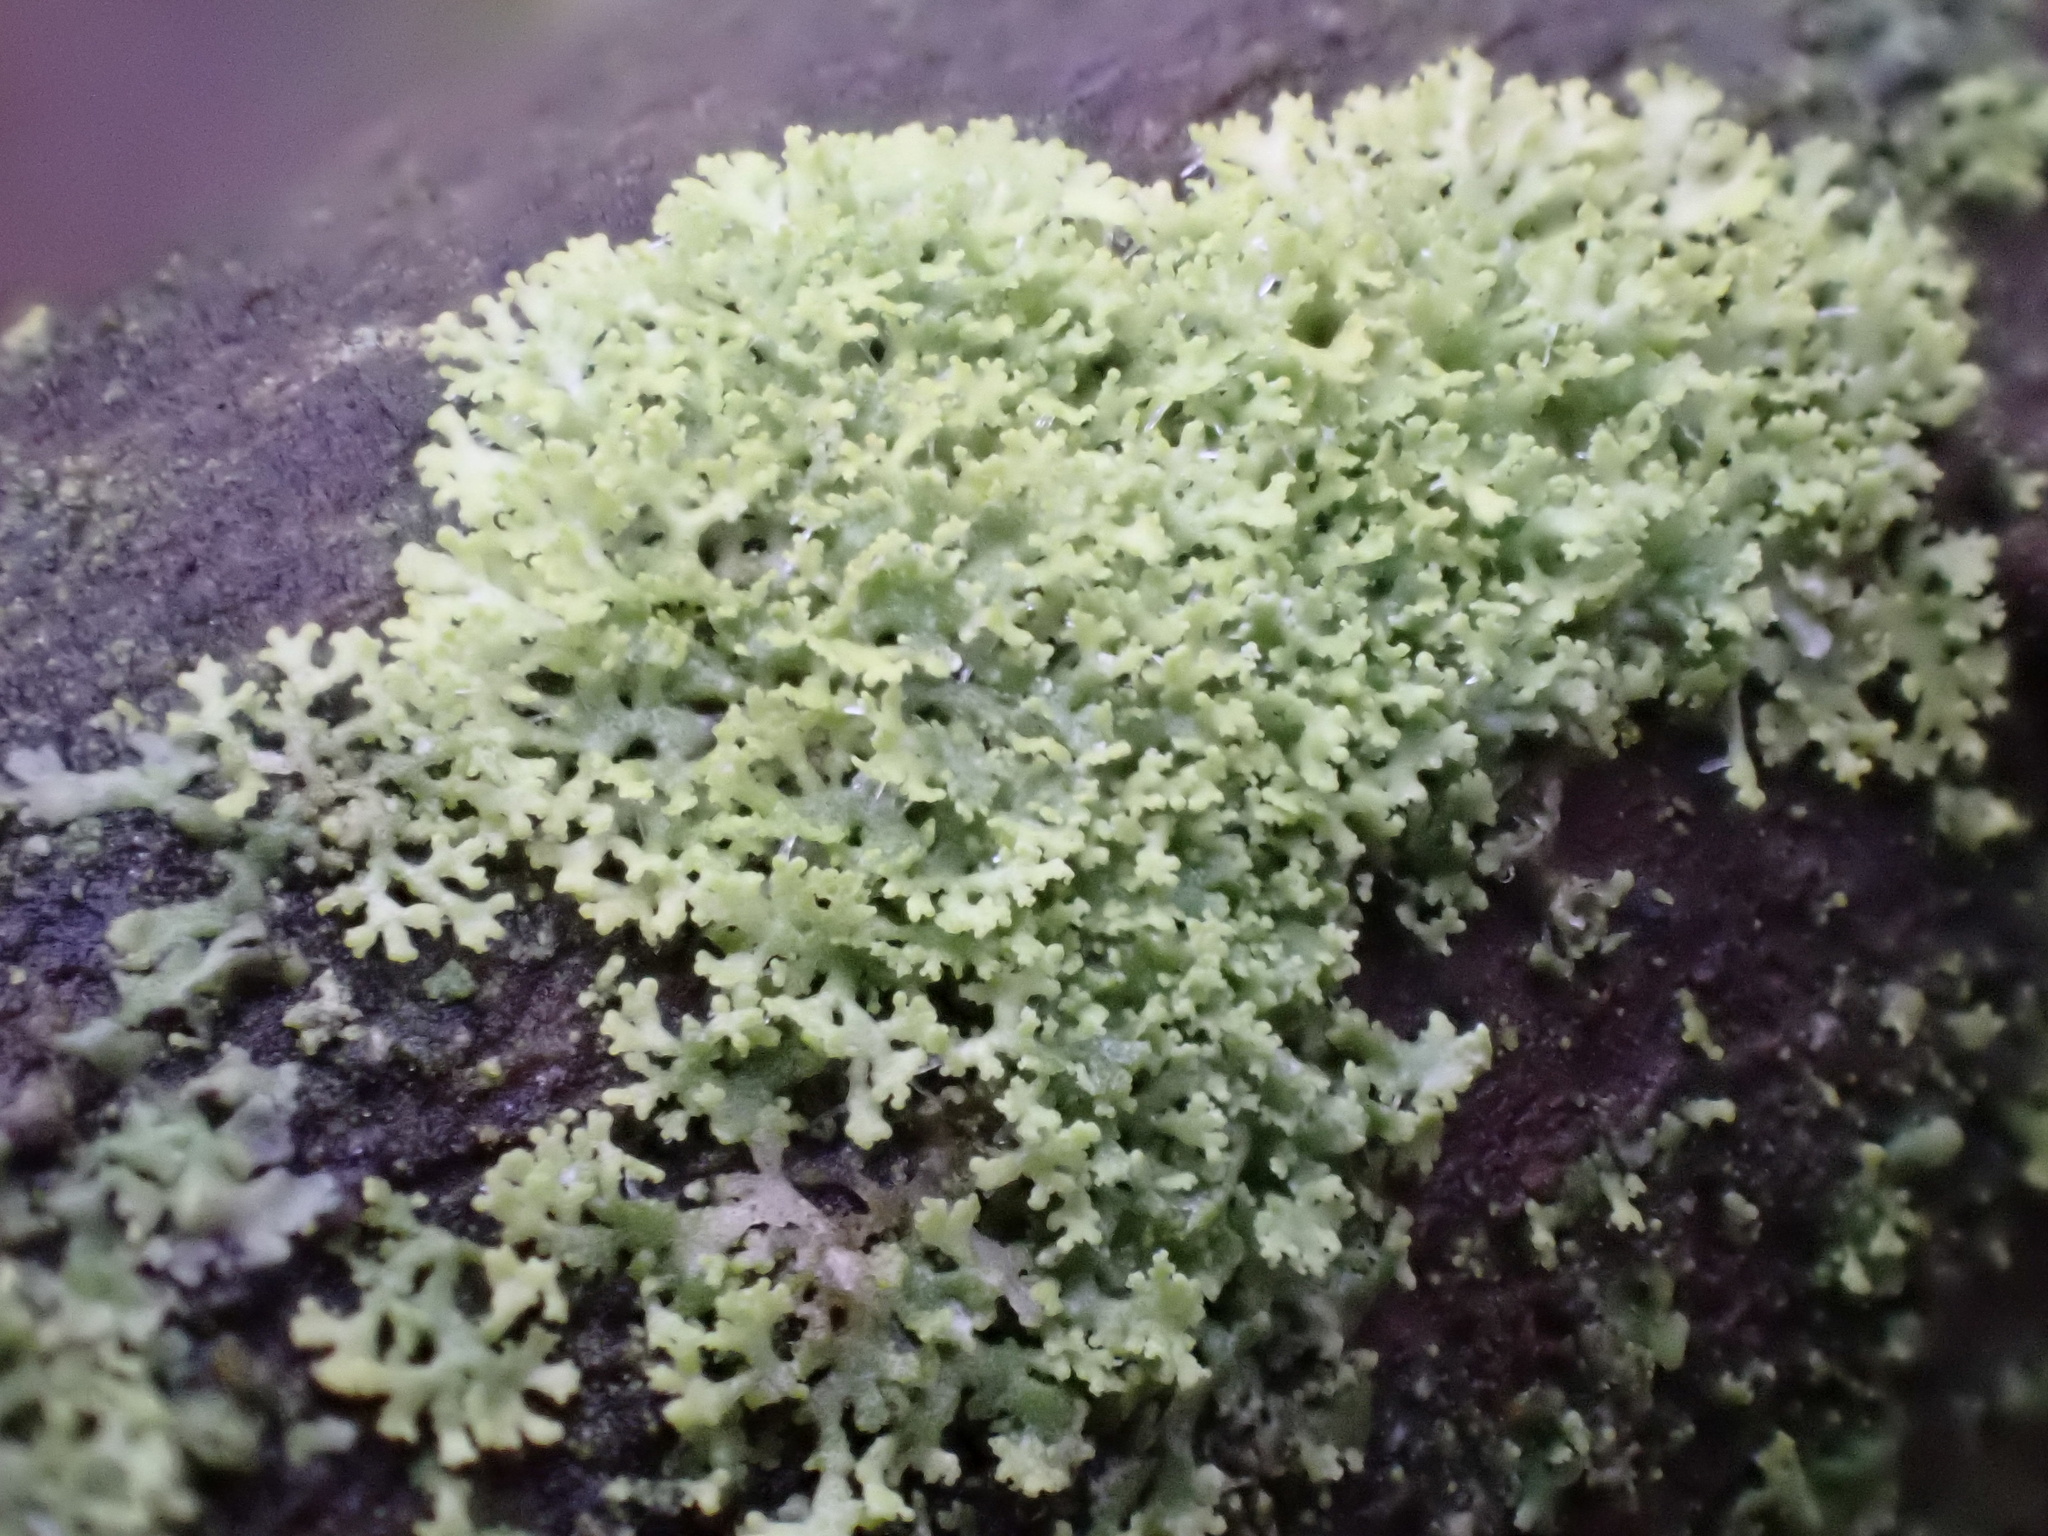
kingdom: Fungi
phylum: Ascomycota
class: Candelariomycetes
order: Candelariales
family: Candelariaceae
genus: Candelaria
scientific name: Candelaria concolor
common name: Candleflame lichen
